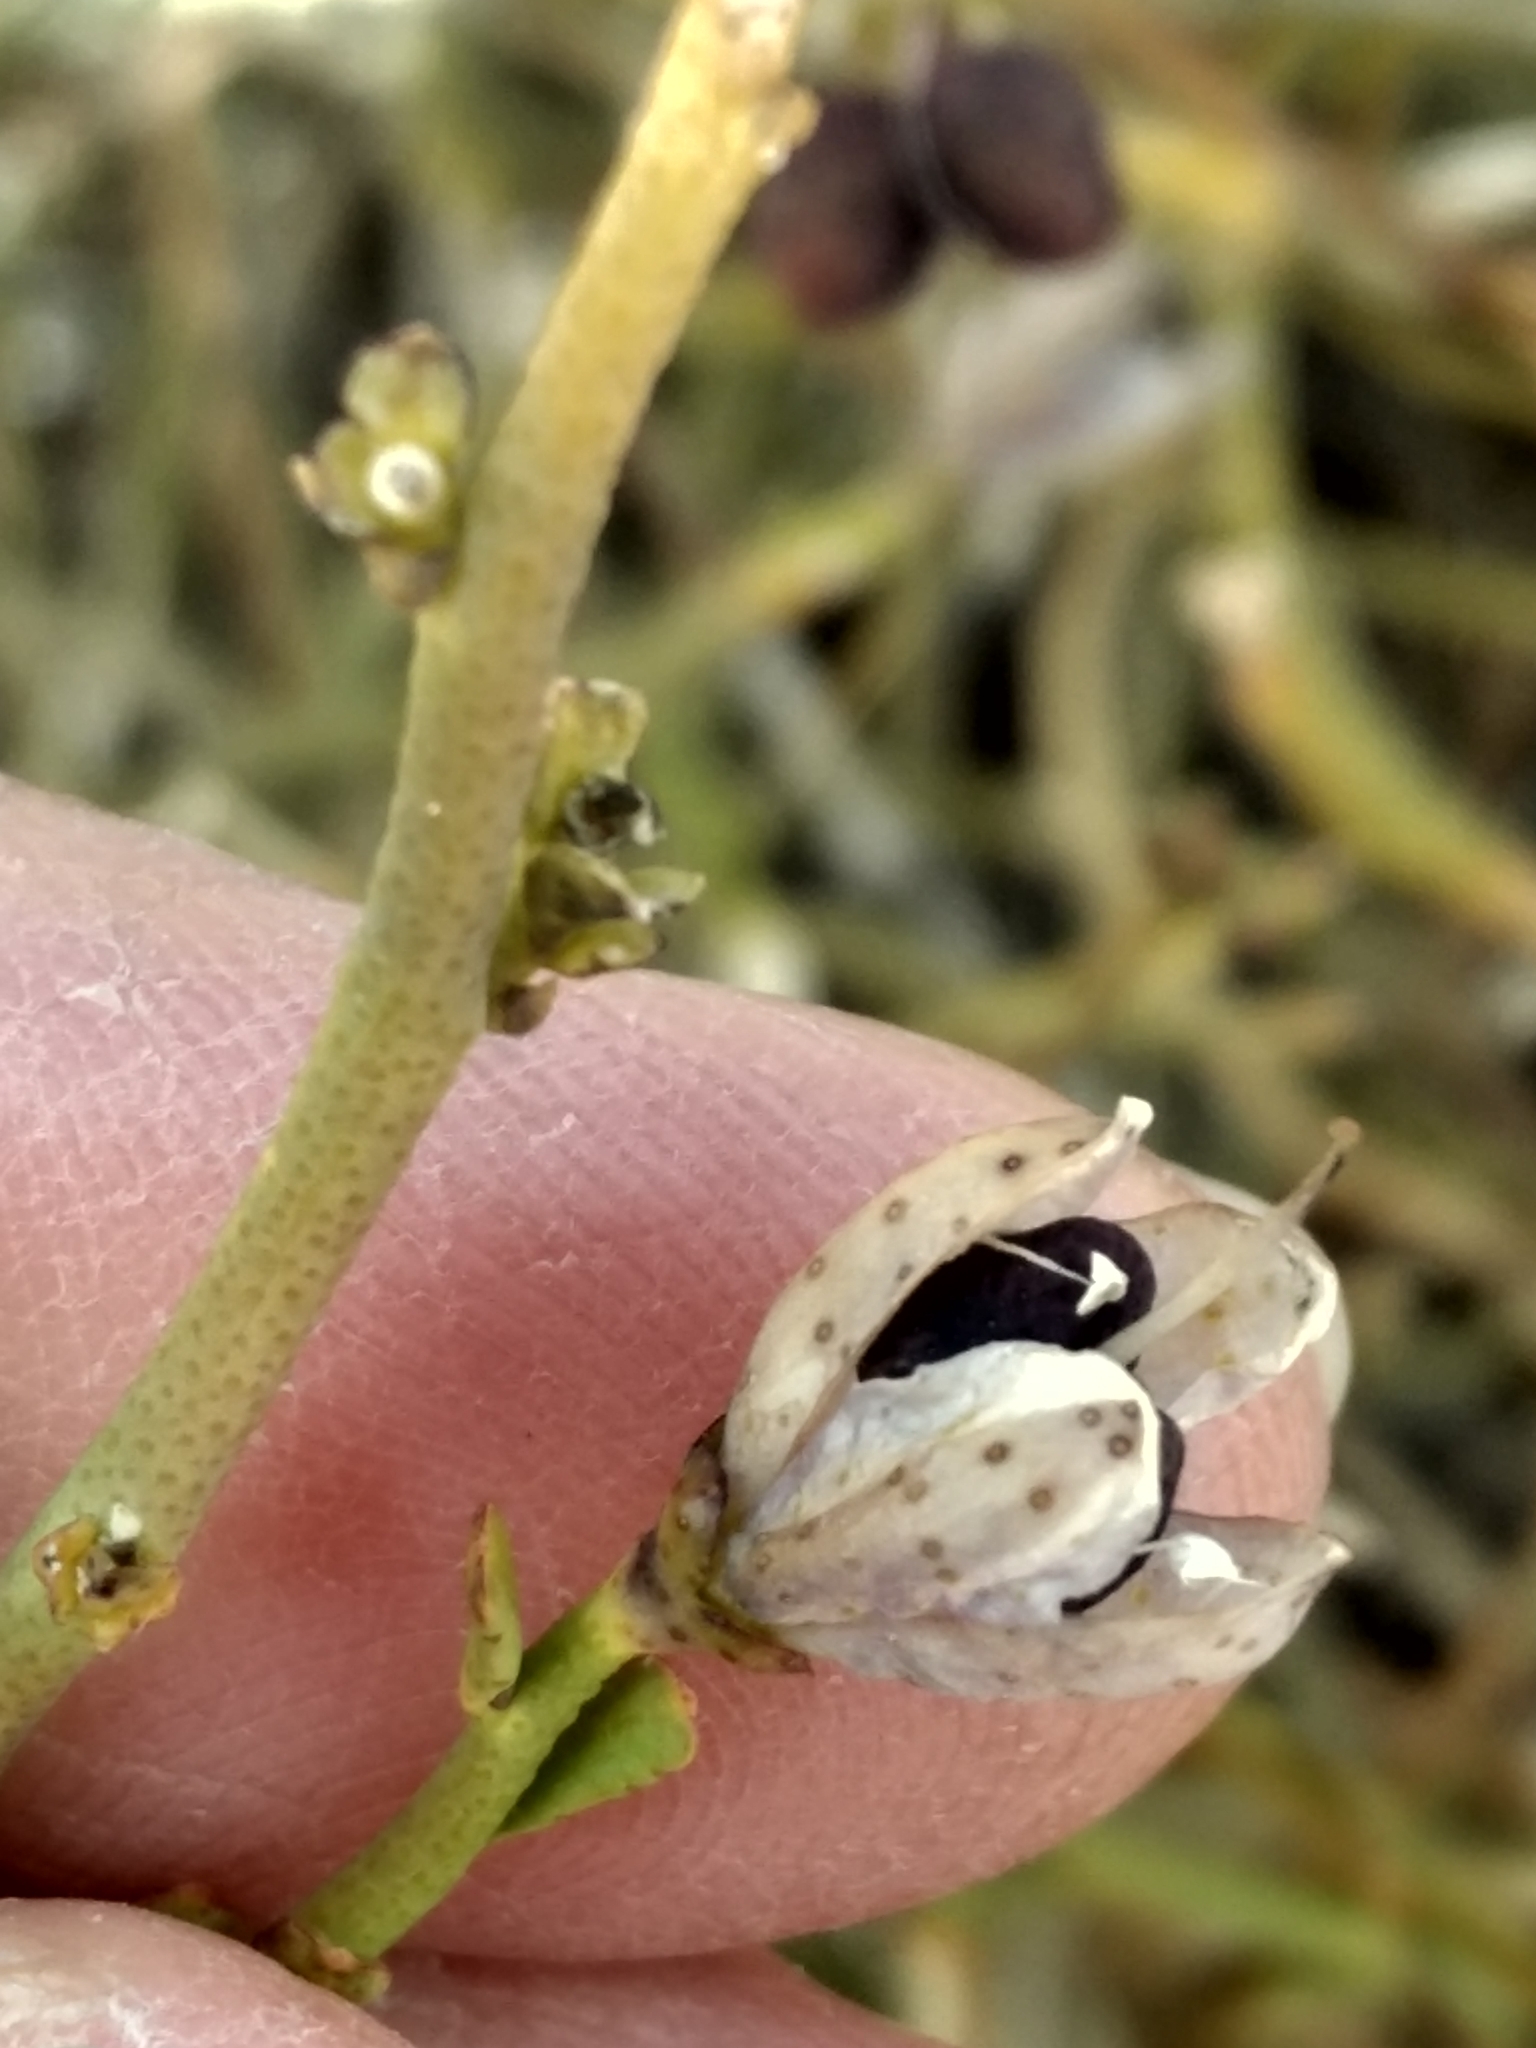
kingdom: Plantae
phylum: Tracheophyta
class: Magnoliopsida
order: Sapindales
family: Rutaceae
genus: Thamnosma
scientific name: Thamnosma montana
